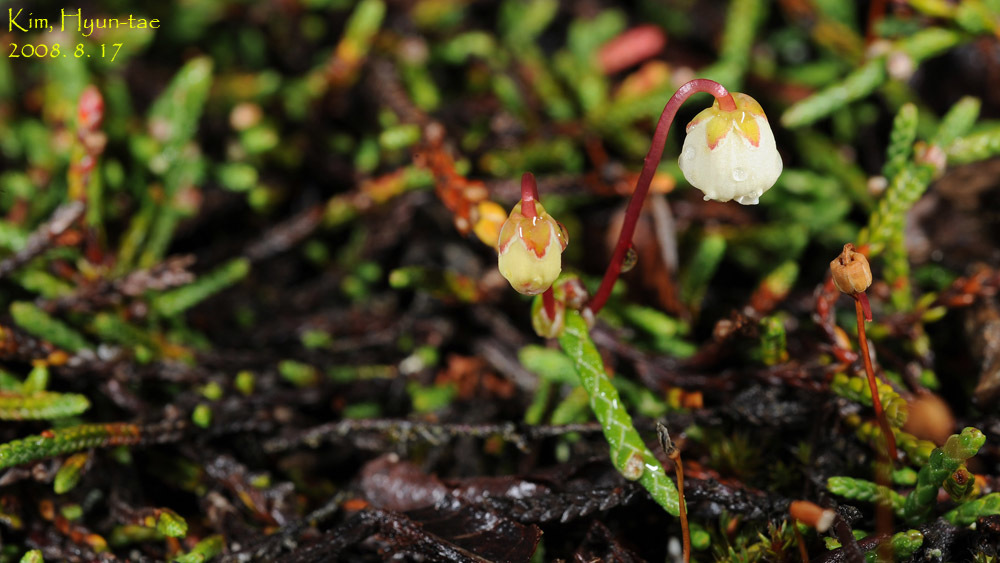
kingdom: Plantae
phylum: Tracheophyta
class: Magnoliopsida
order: Ericales
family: Ericaceae
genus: Cassiope
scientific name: Cassiope lycopodioides
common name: Clubmoss mountain heather
